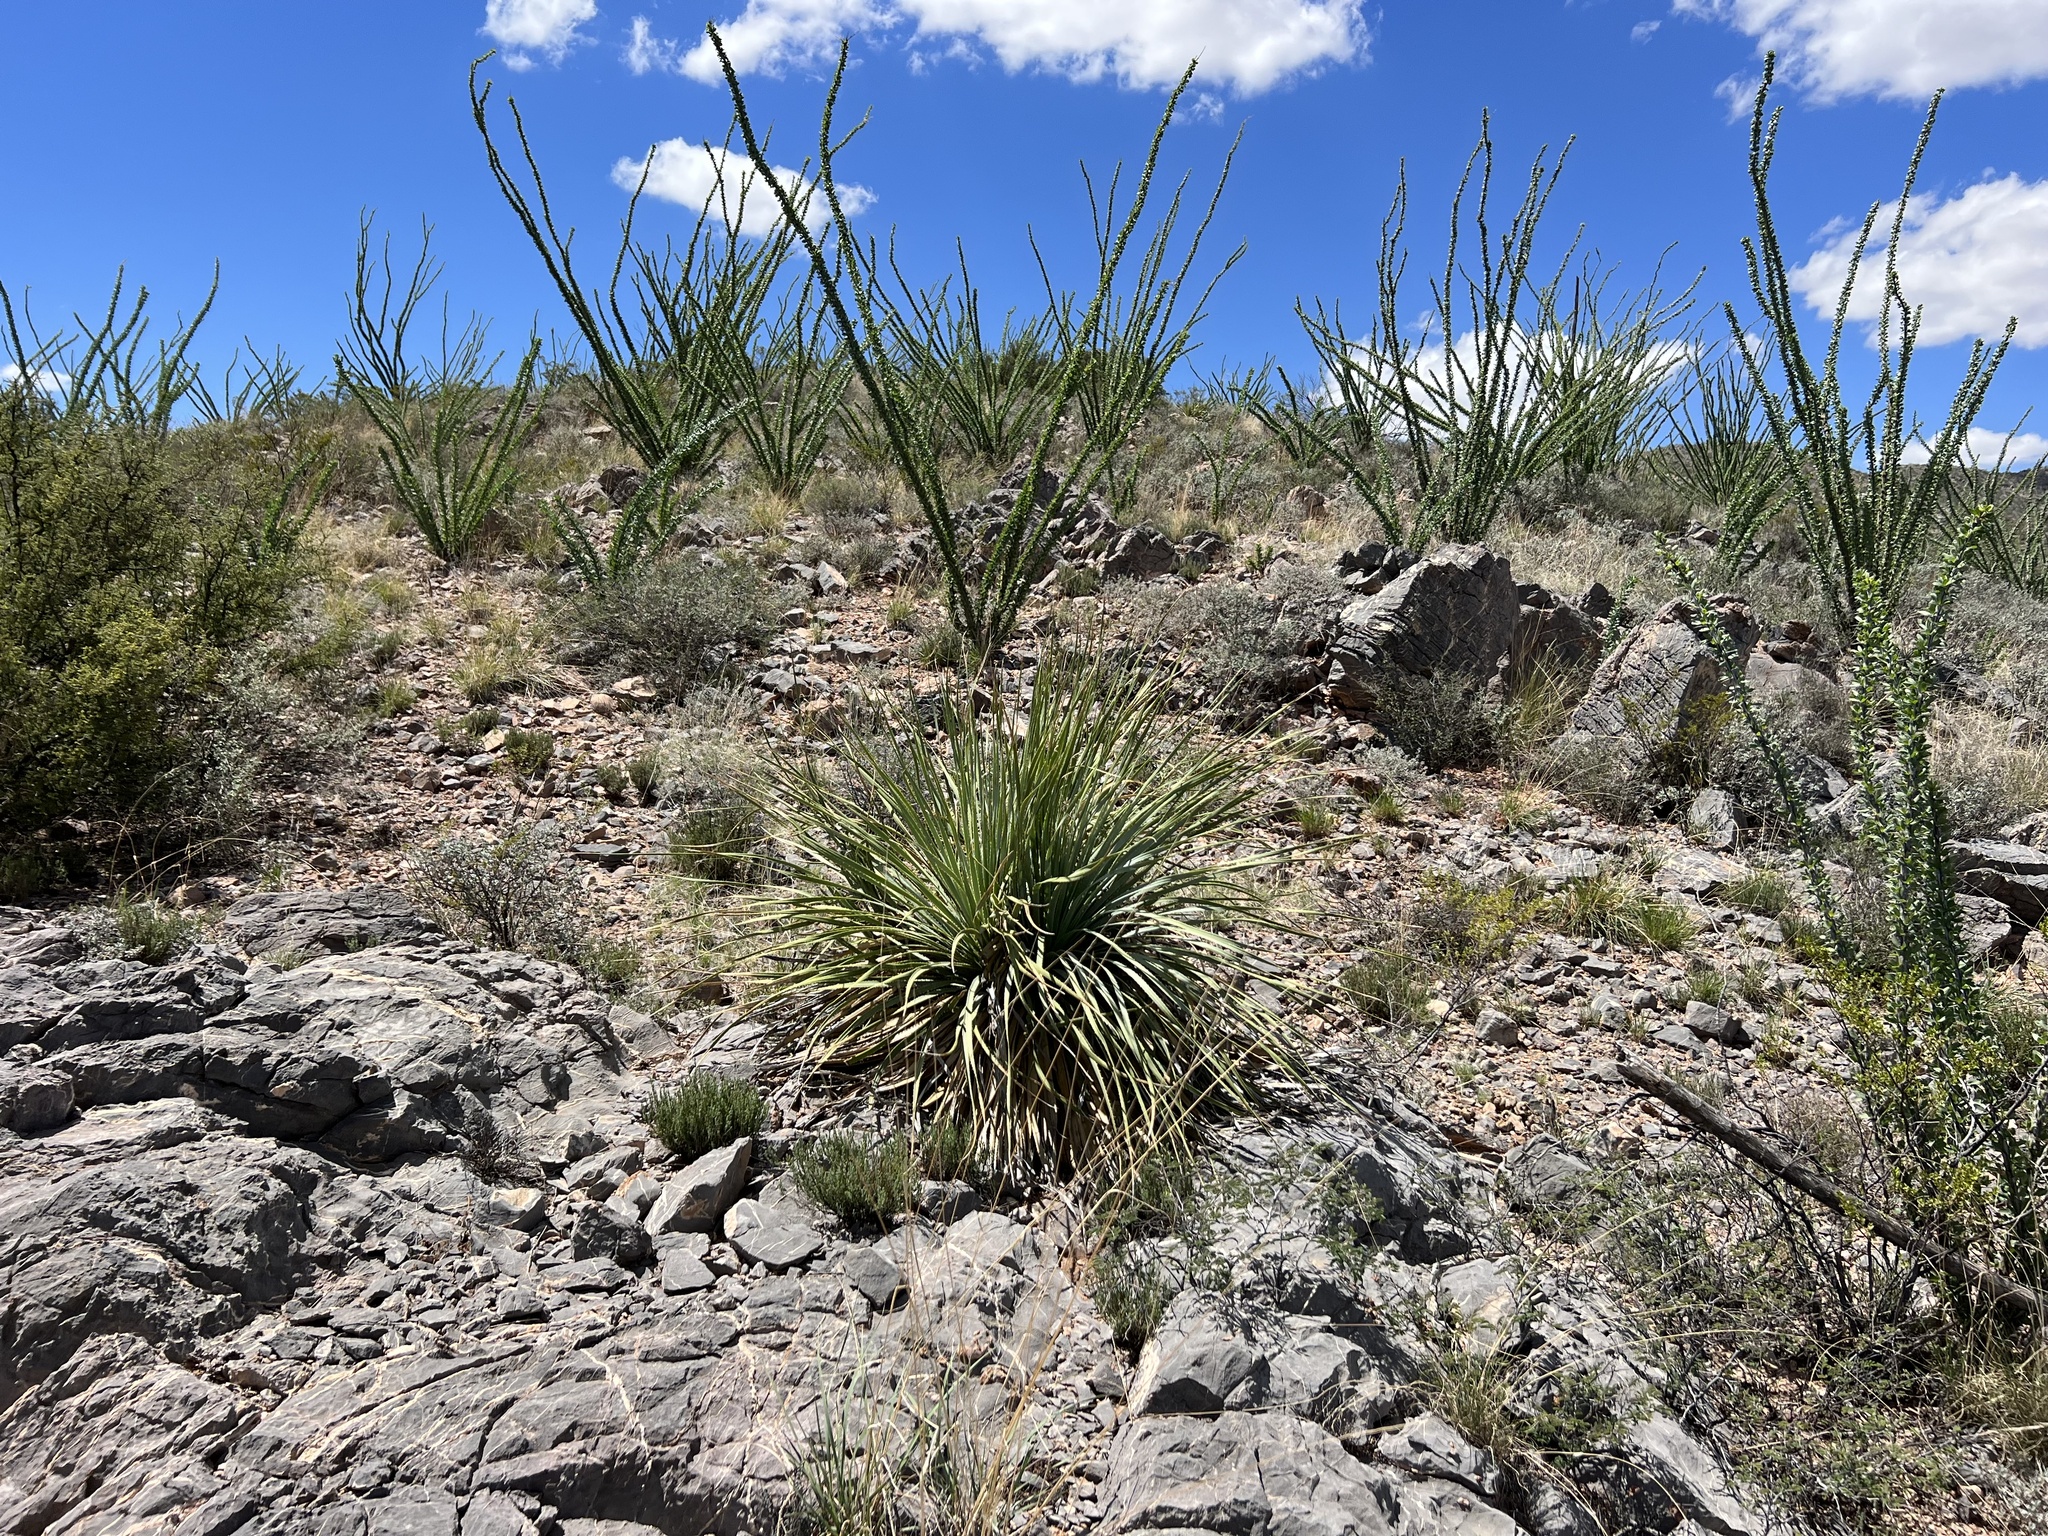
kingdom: Plantae
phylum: Tracheophyta
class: Liliopsida
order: Asparagales
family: Asparagaceae
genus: Dasylirion
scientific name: Dasylirion wheeleri
